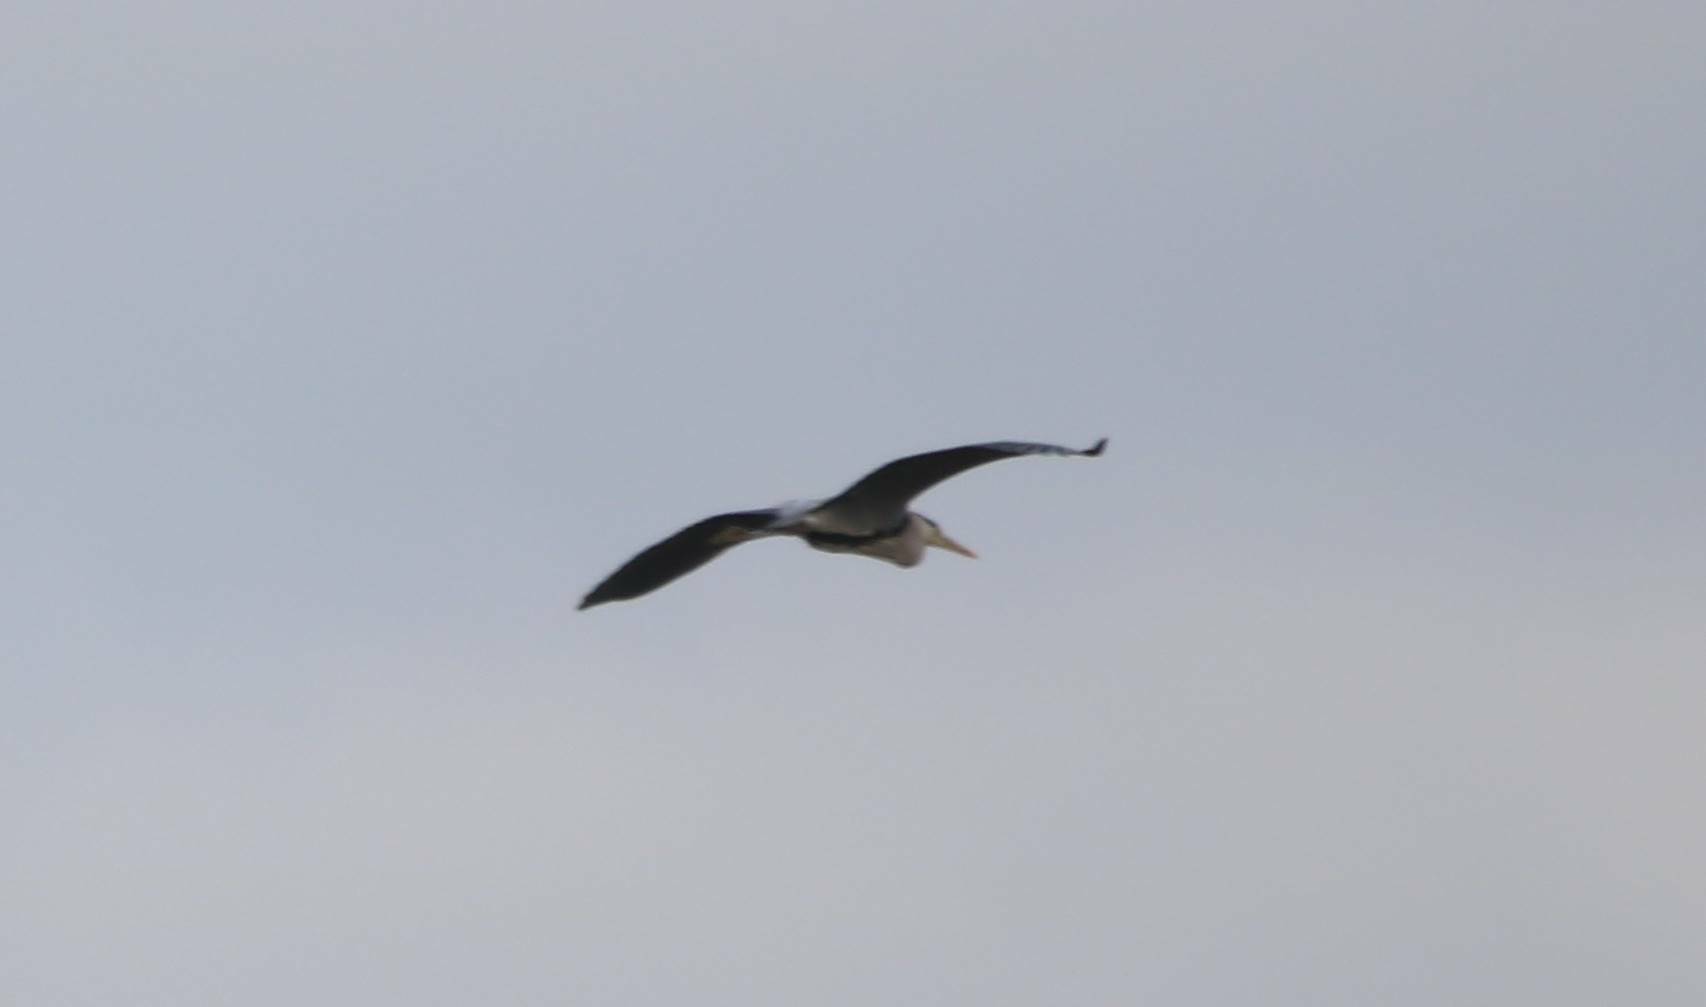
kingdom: Animalia
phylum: Chordata
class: Aves
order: Pelecaniformes
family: Ardeidae
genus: Ardea
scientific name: Ardea cinerea
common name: Grey heron
